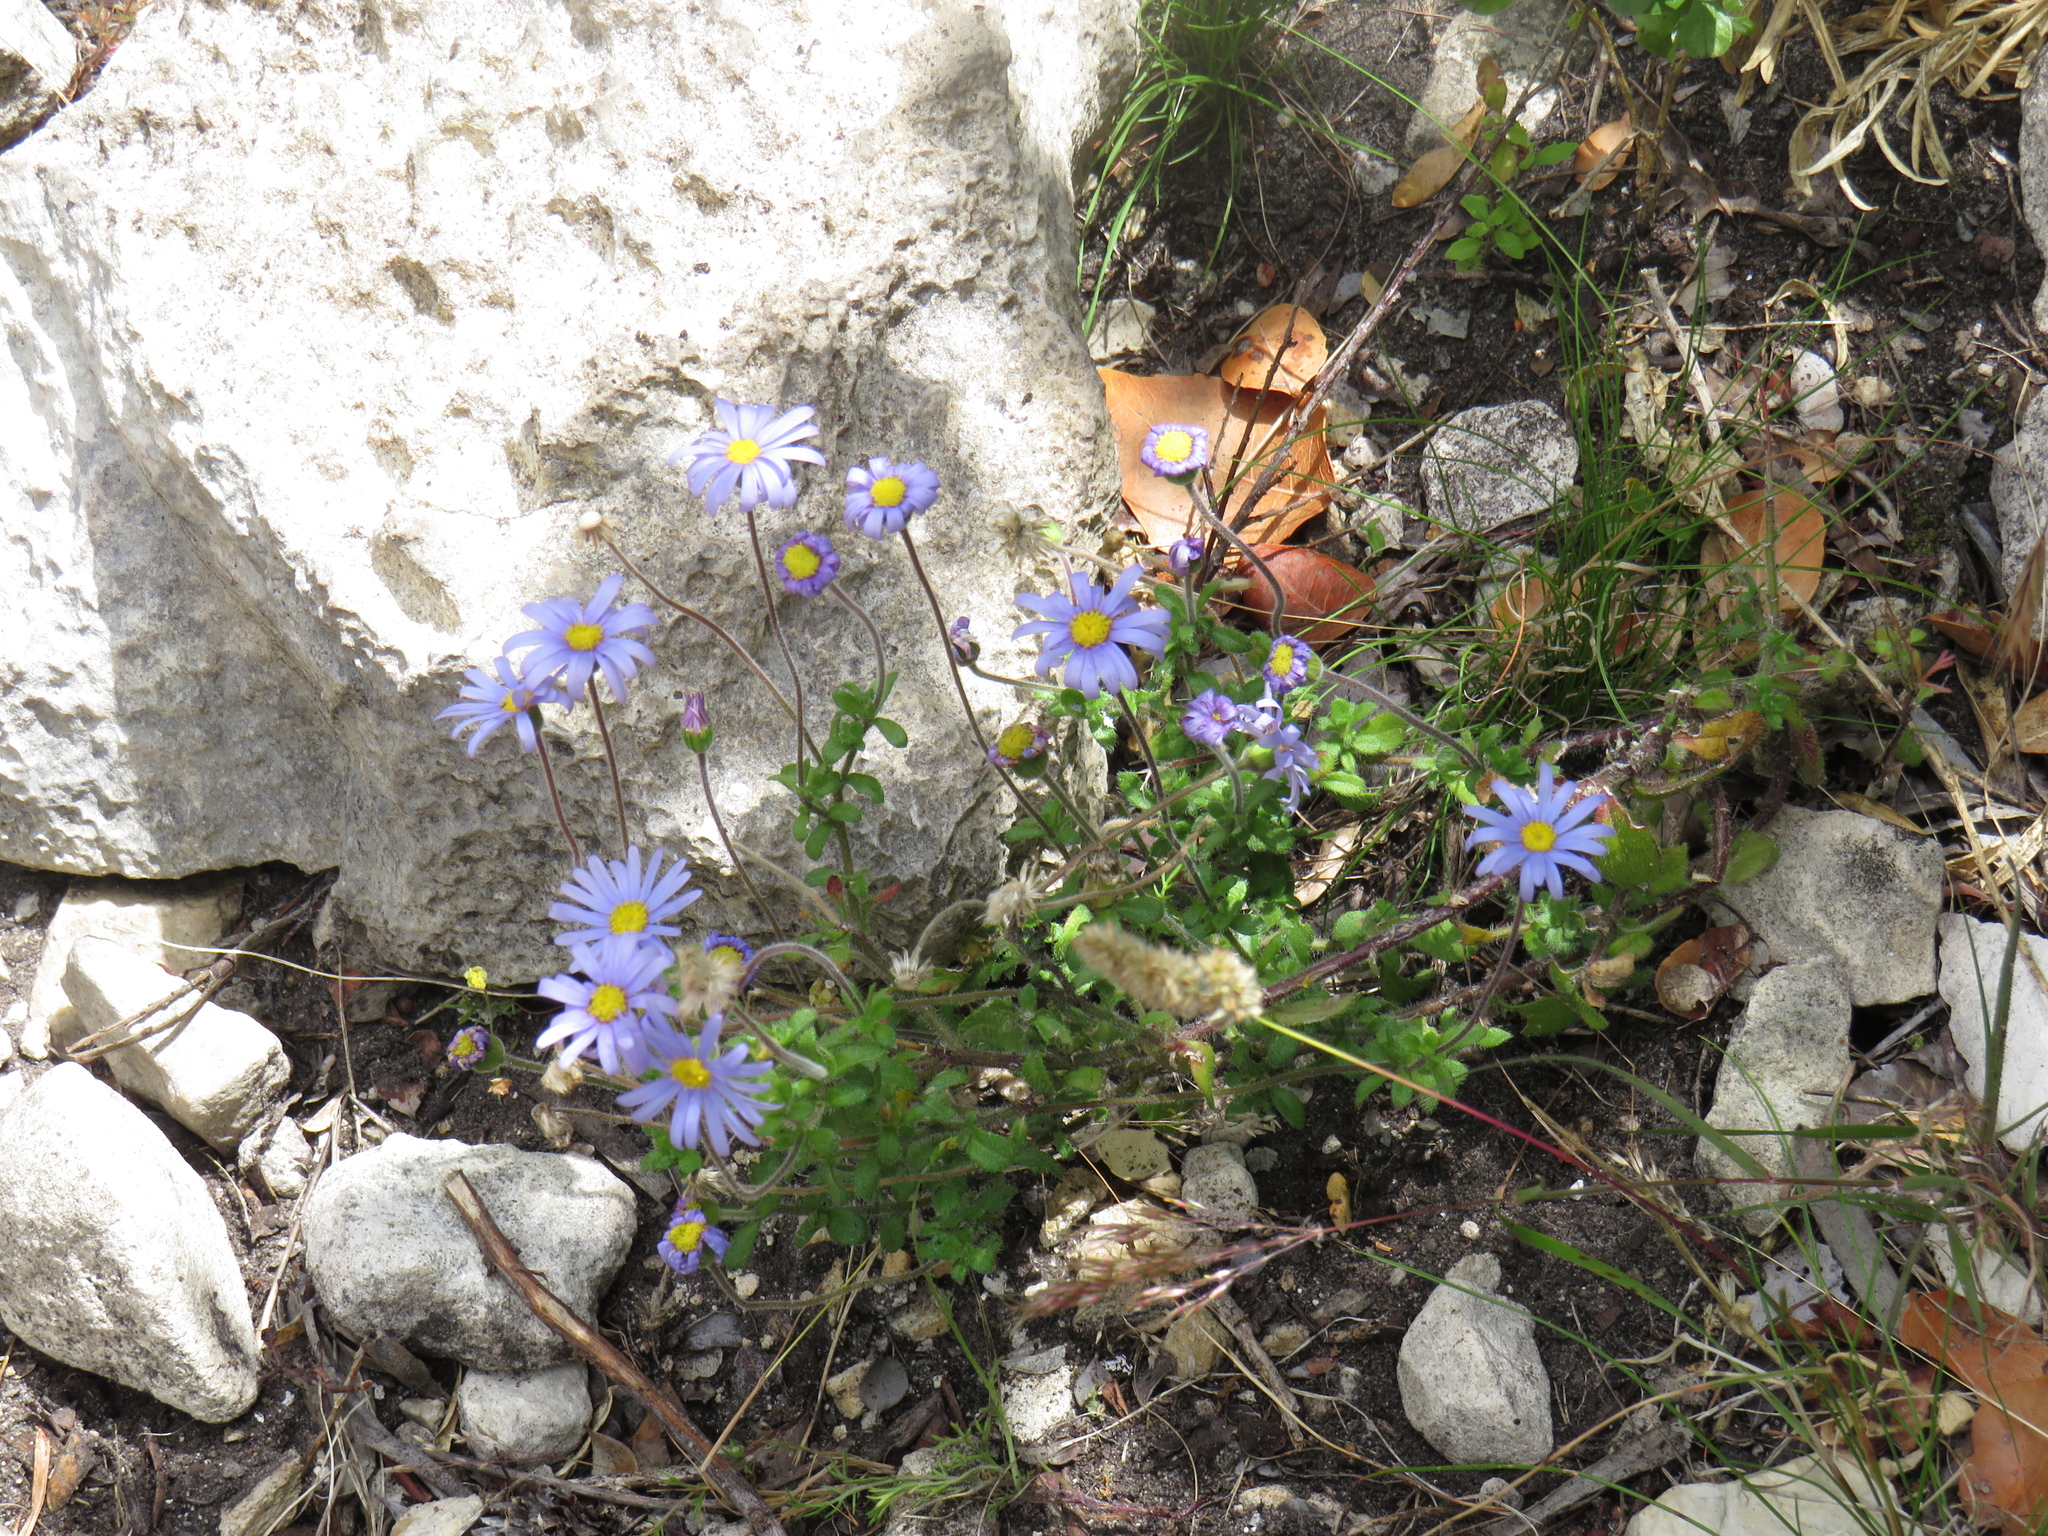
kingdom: Plantae
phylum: Tracheophyta
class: Magnoliopsida
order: Asterales
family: Asteraceae
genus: Felicia
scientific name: Felicia amoena
